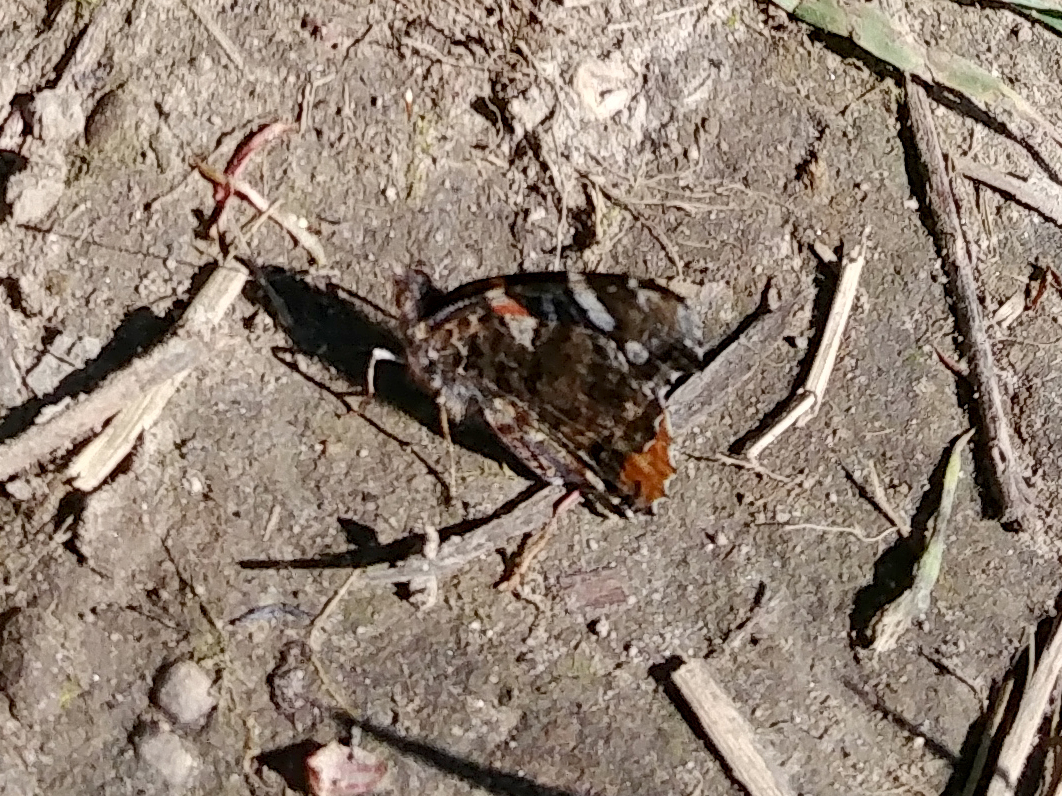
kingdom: Animalia
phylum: Arthropoda
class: Insecta
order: Lepidoptera
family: Nymphalidae
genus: Vanessa
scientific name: Vanessa atalanta
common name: Red admiral
